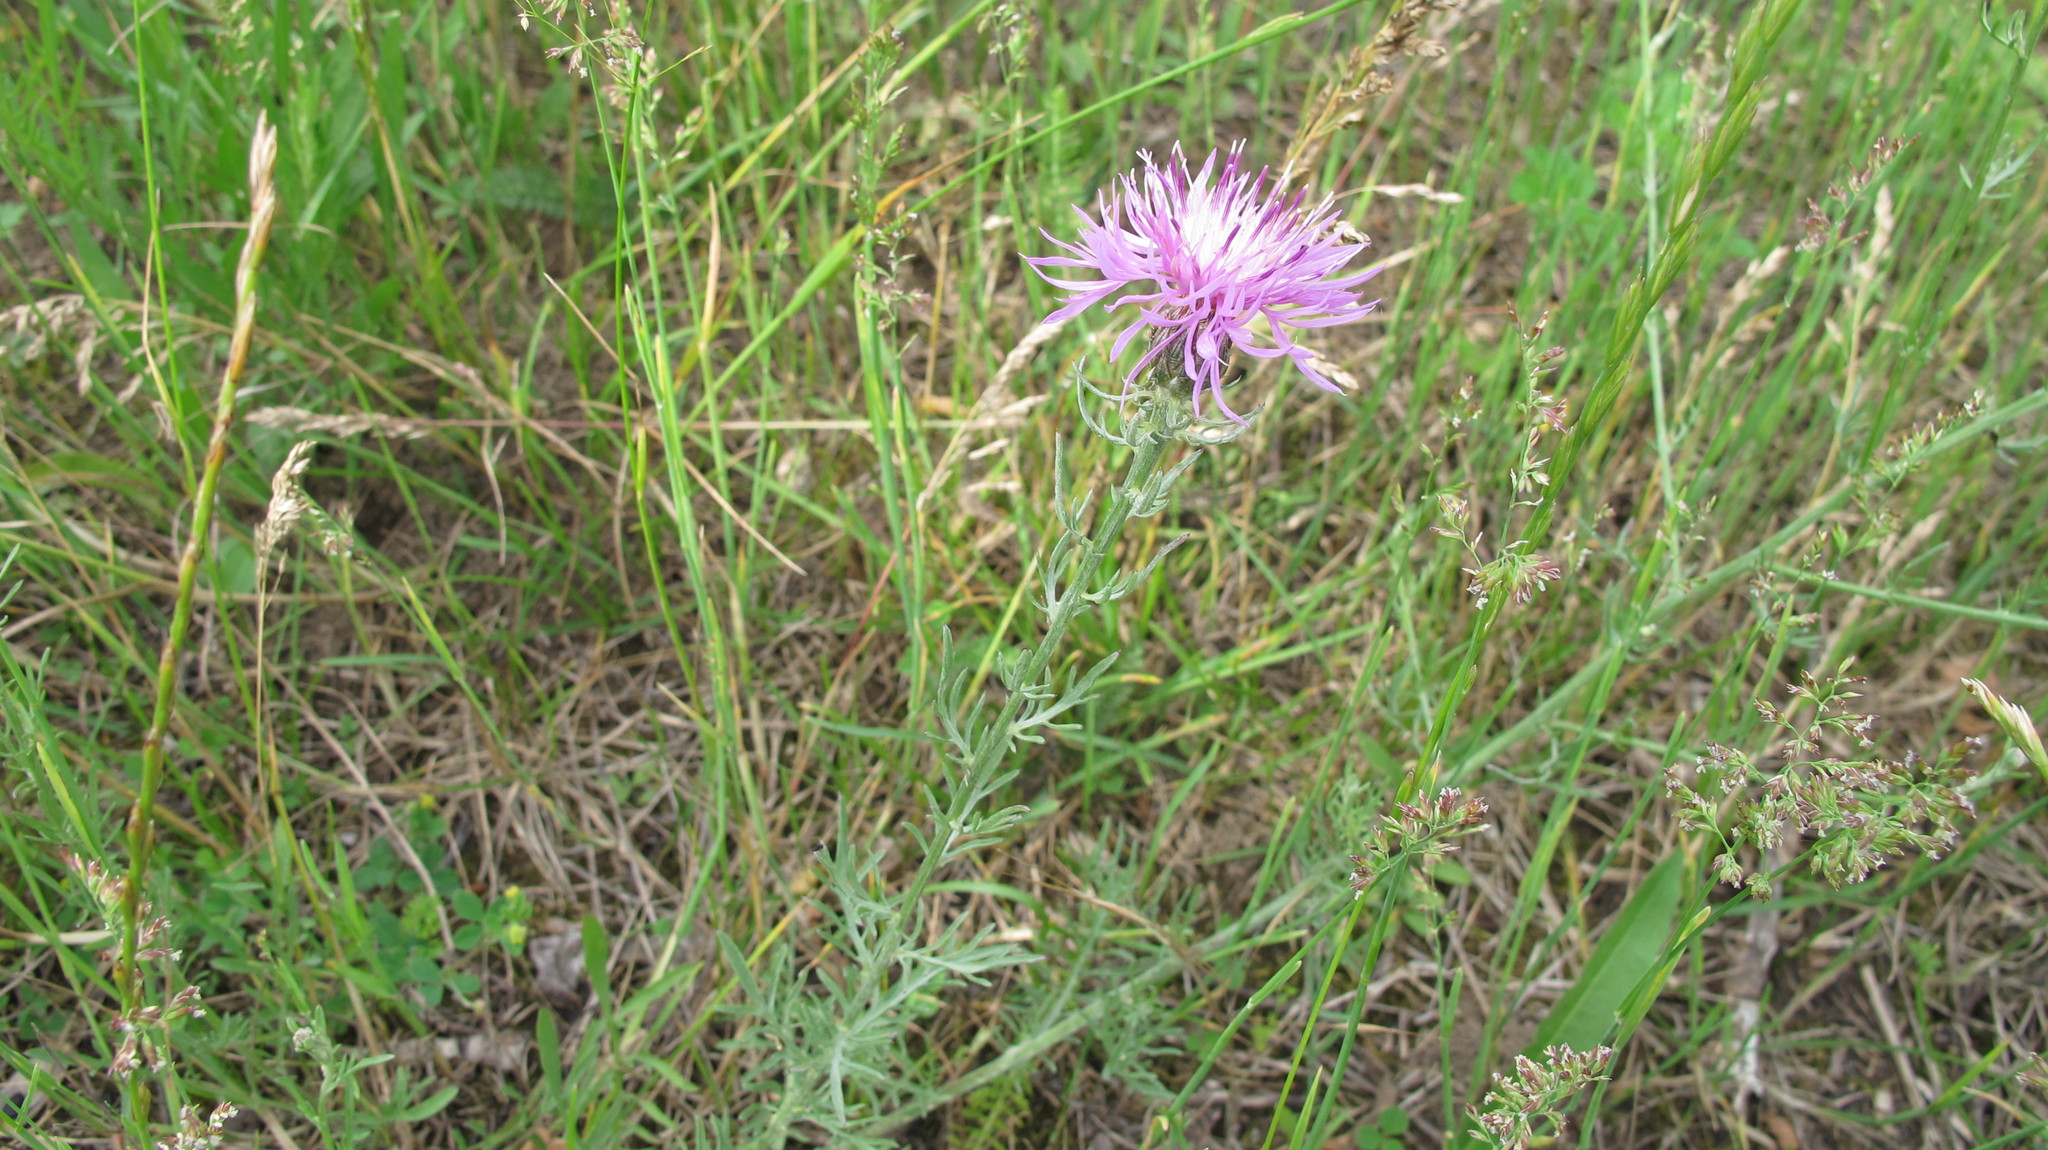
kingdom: Plantae
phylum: Tracheophyta
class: Magnoliopsida
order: Asterales
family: Asteraceae
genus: Centaurea
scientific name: Centaurea stoebe
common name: Spotted knapweed
